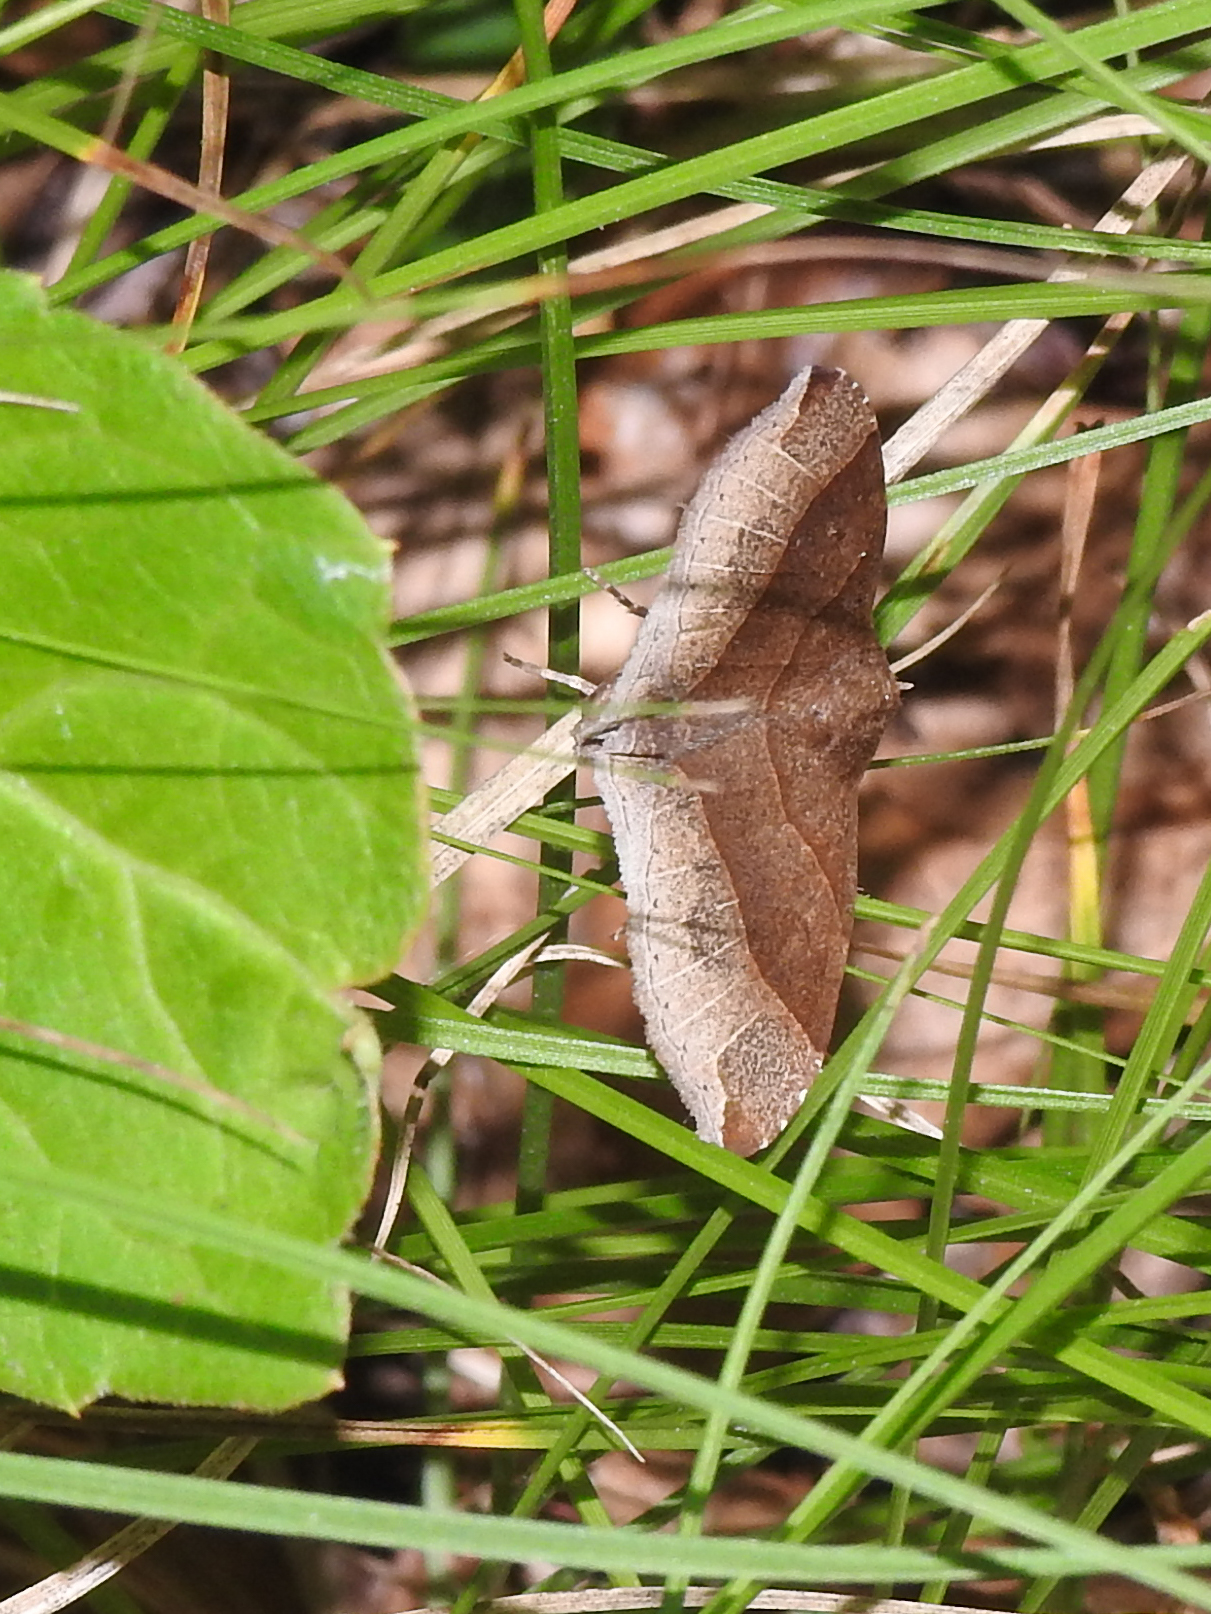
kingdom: Animalia
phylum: Arthropoda
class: Insecta
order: Lepidoptera
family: Erebidae
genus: Parallelia
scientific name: Parallelia bistriaris
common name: Maple looper moth
